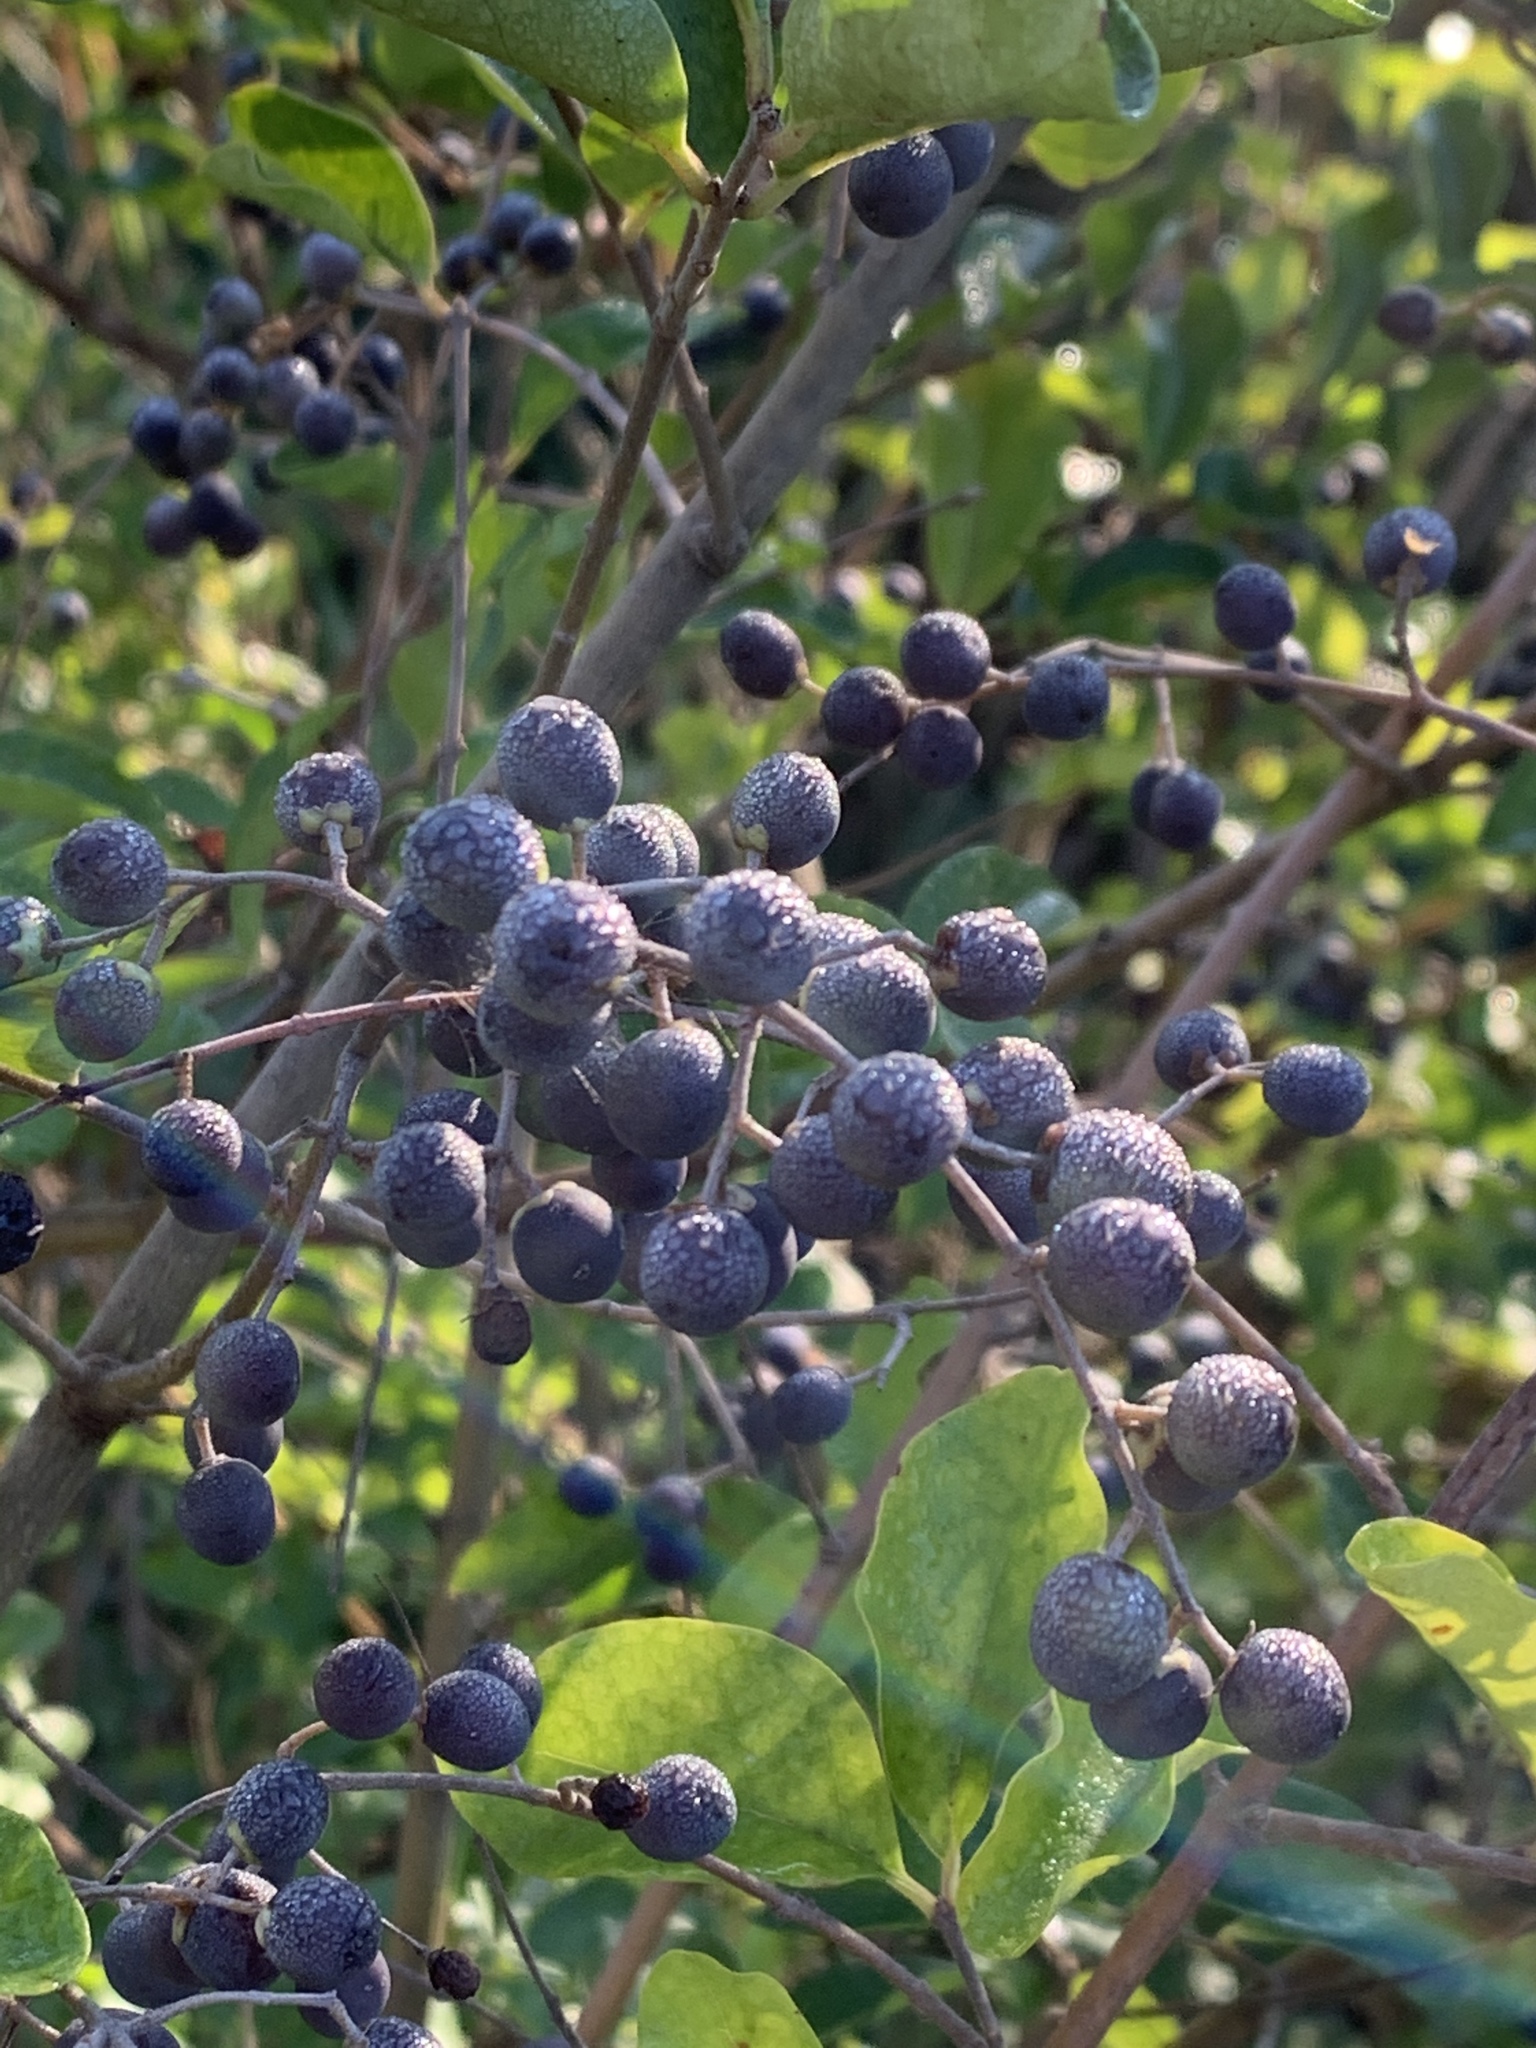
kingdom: Plantae
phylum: Tracheophyta
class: Magnoliopsida
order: Lamiales
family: Oleaceae
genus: Ligustrum
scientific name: Ligustrum sinense
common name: Chinese privet
